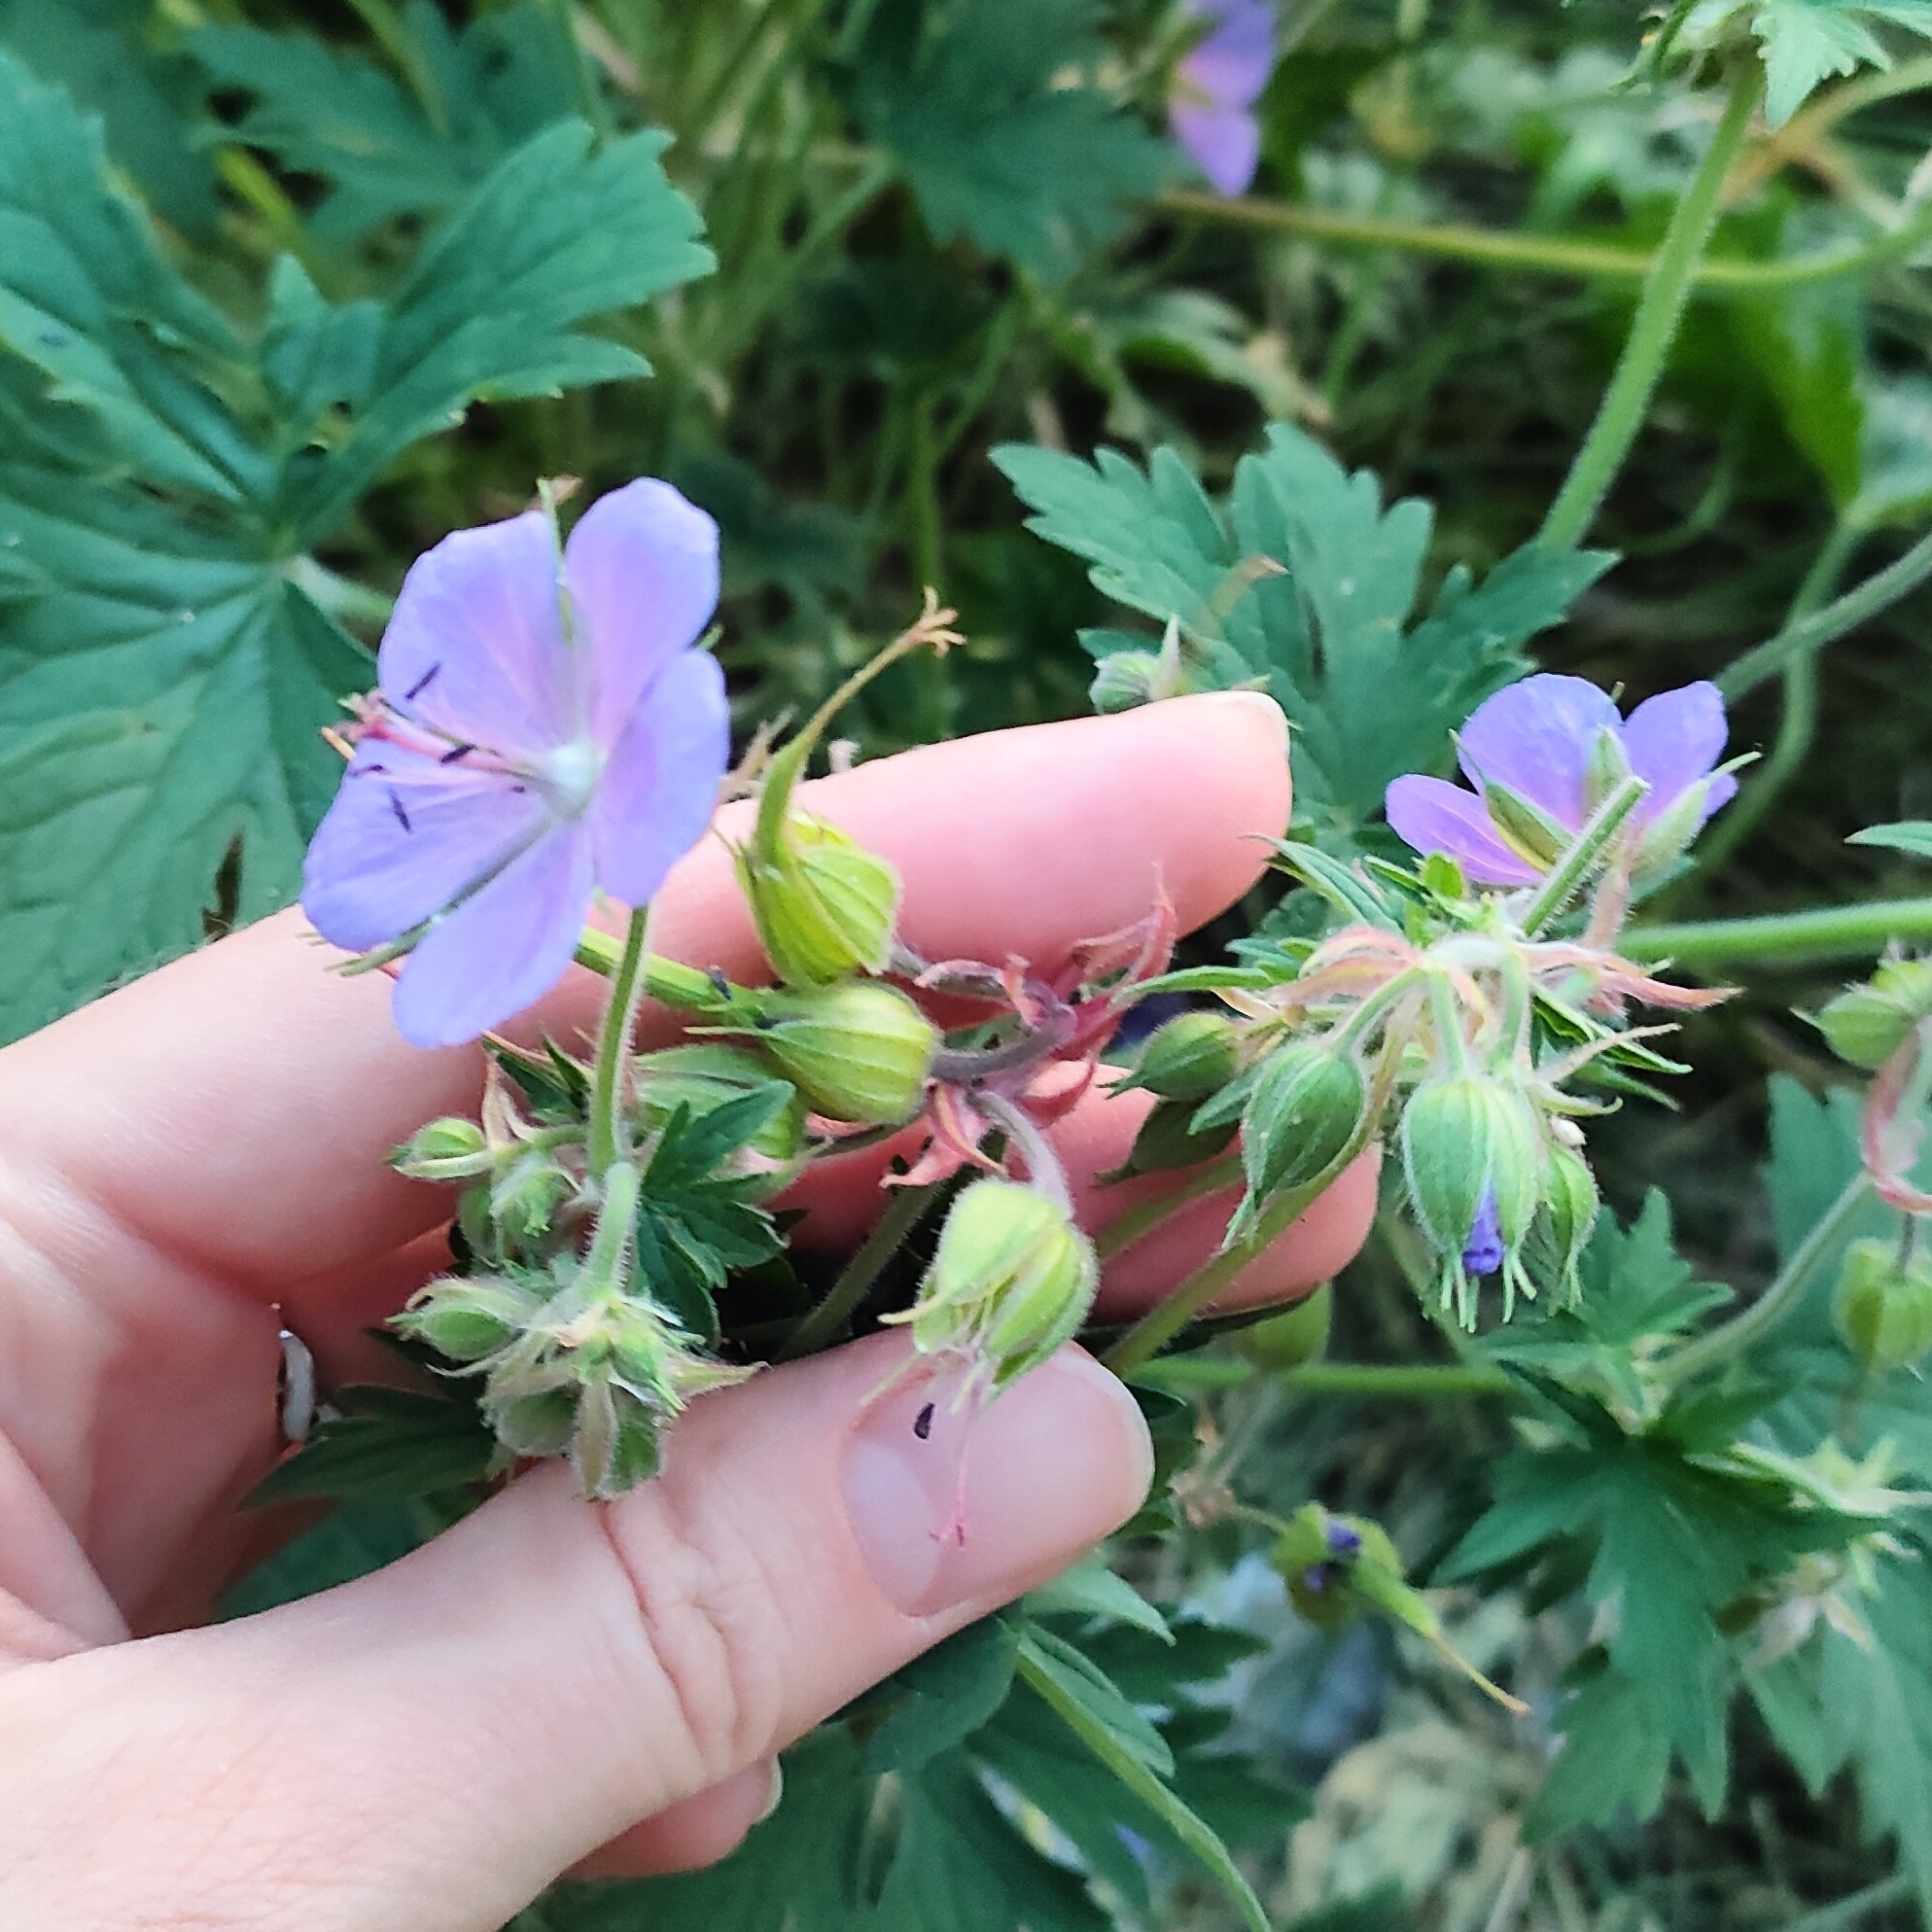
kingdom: Plantae
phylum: Tracheophyta
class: Magnoliopsida
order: Geraniales
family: Geraniaceae
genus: Geranium
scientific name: Geranium pratense
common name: Meadow crane's-bill
